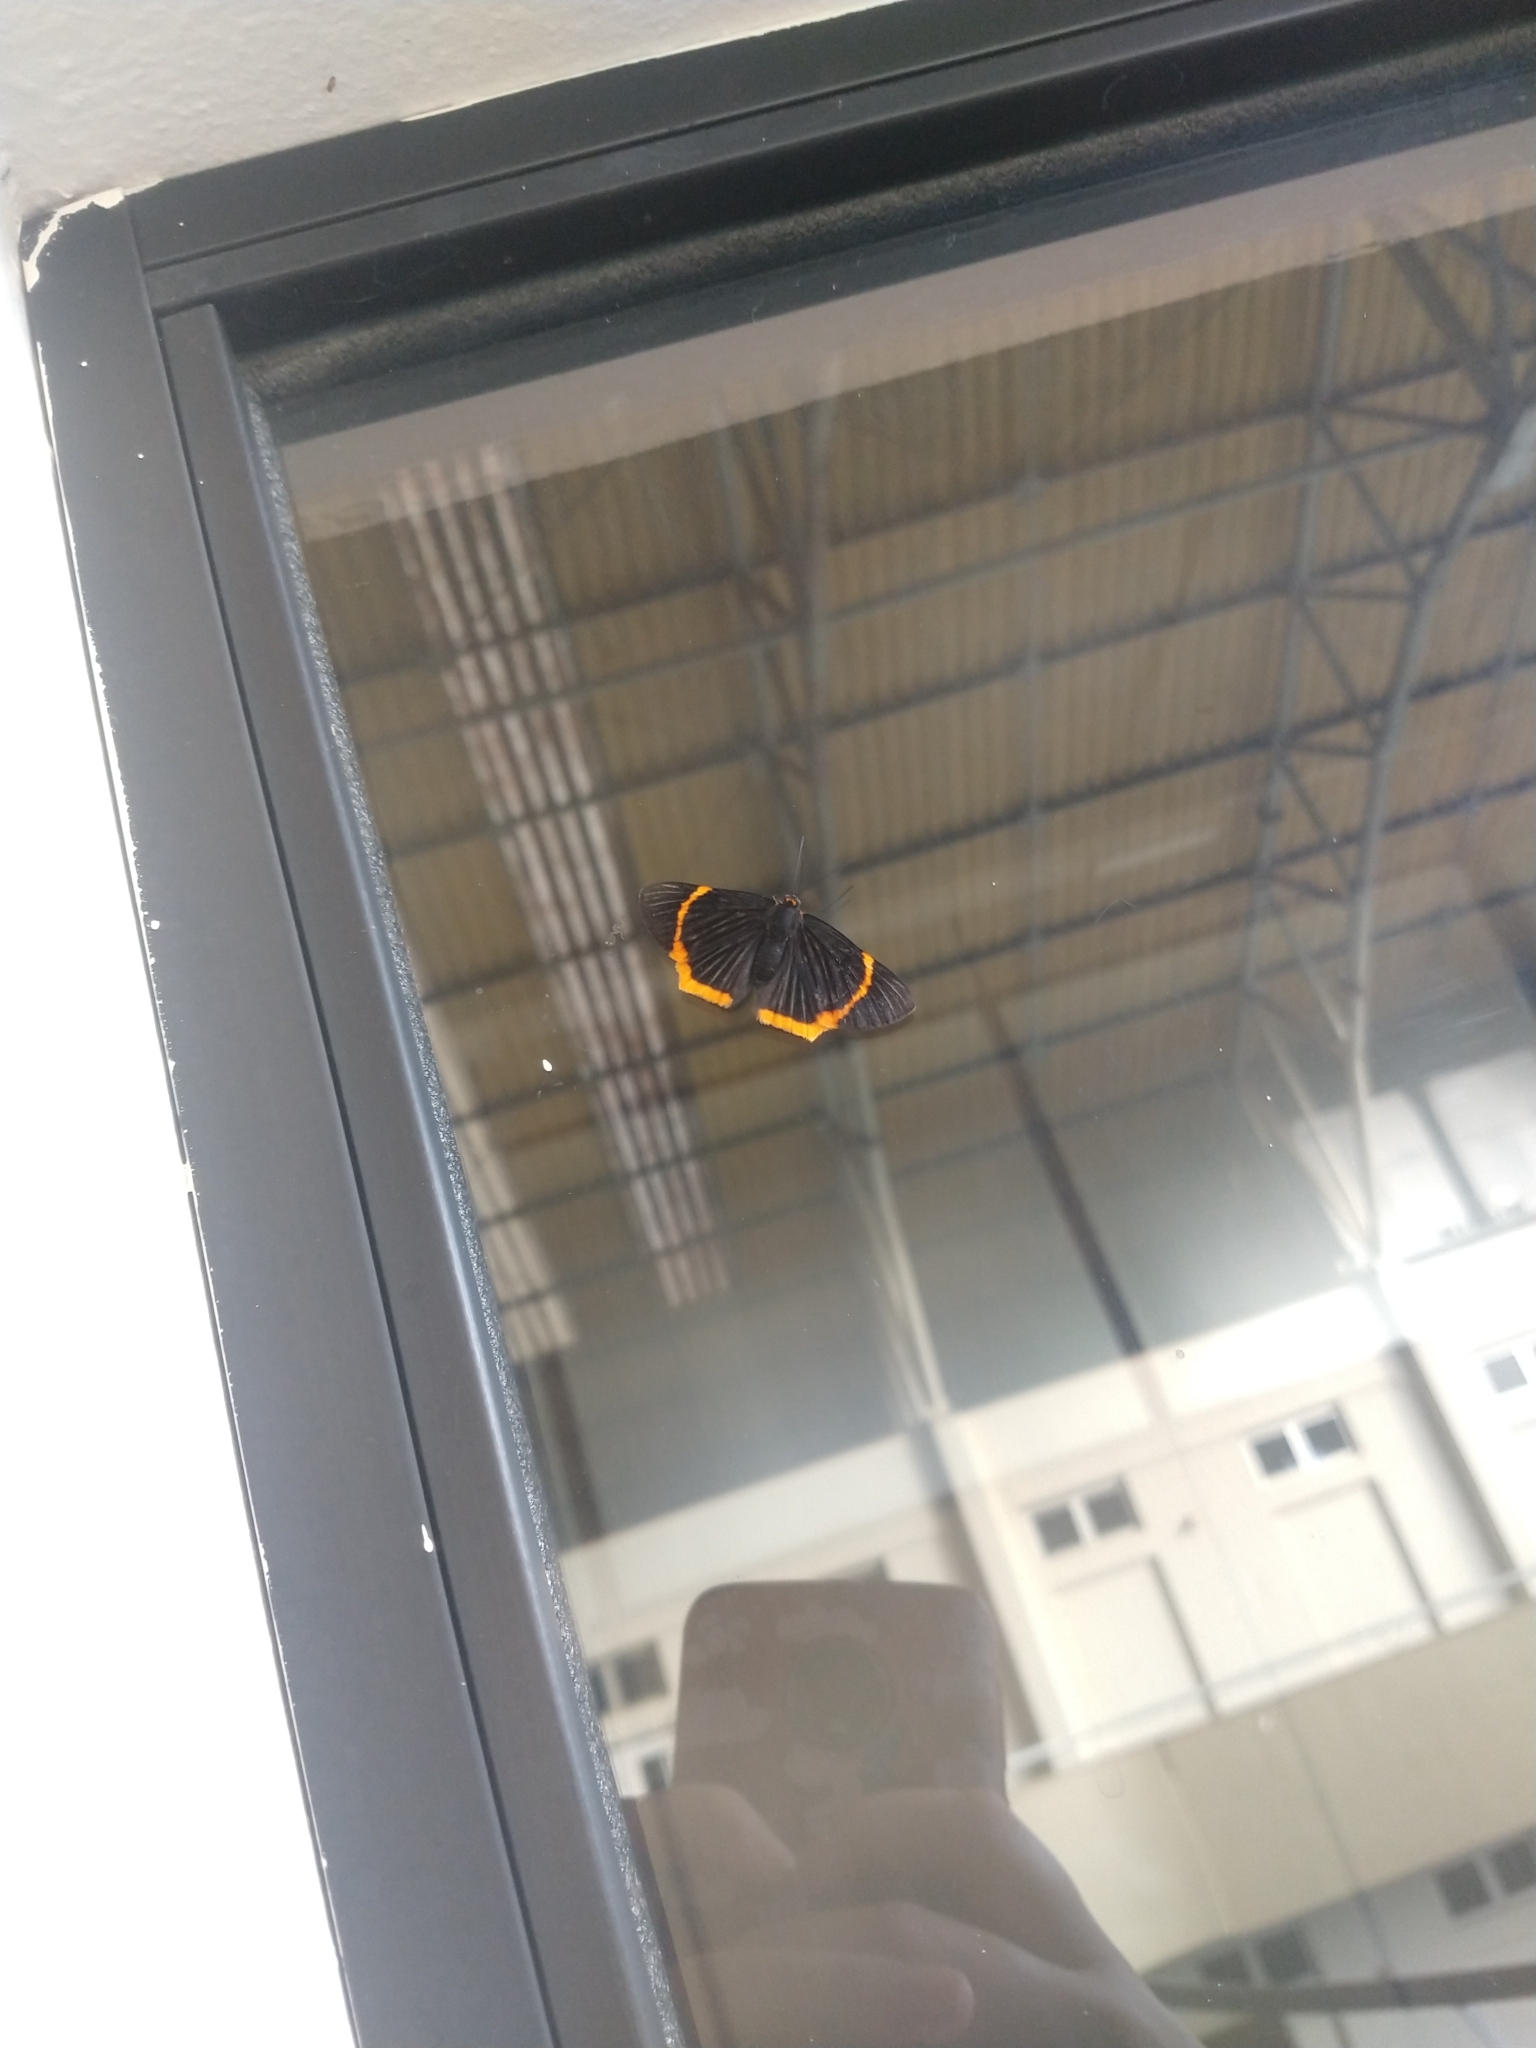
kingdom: Animalia
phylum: Arthropoda
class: Insecta
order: Lepidoptera
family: Riodinidae
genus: Riodina
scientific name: Riodina lycisca
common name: Lycisca metalmark
